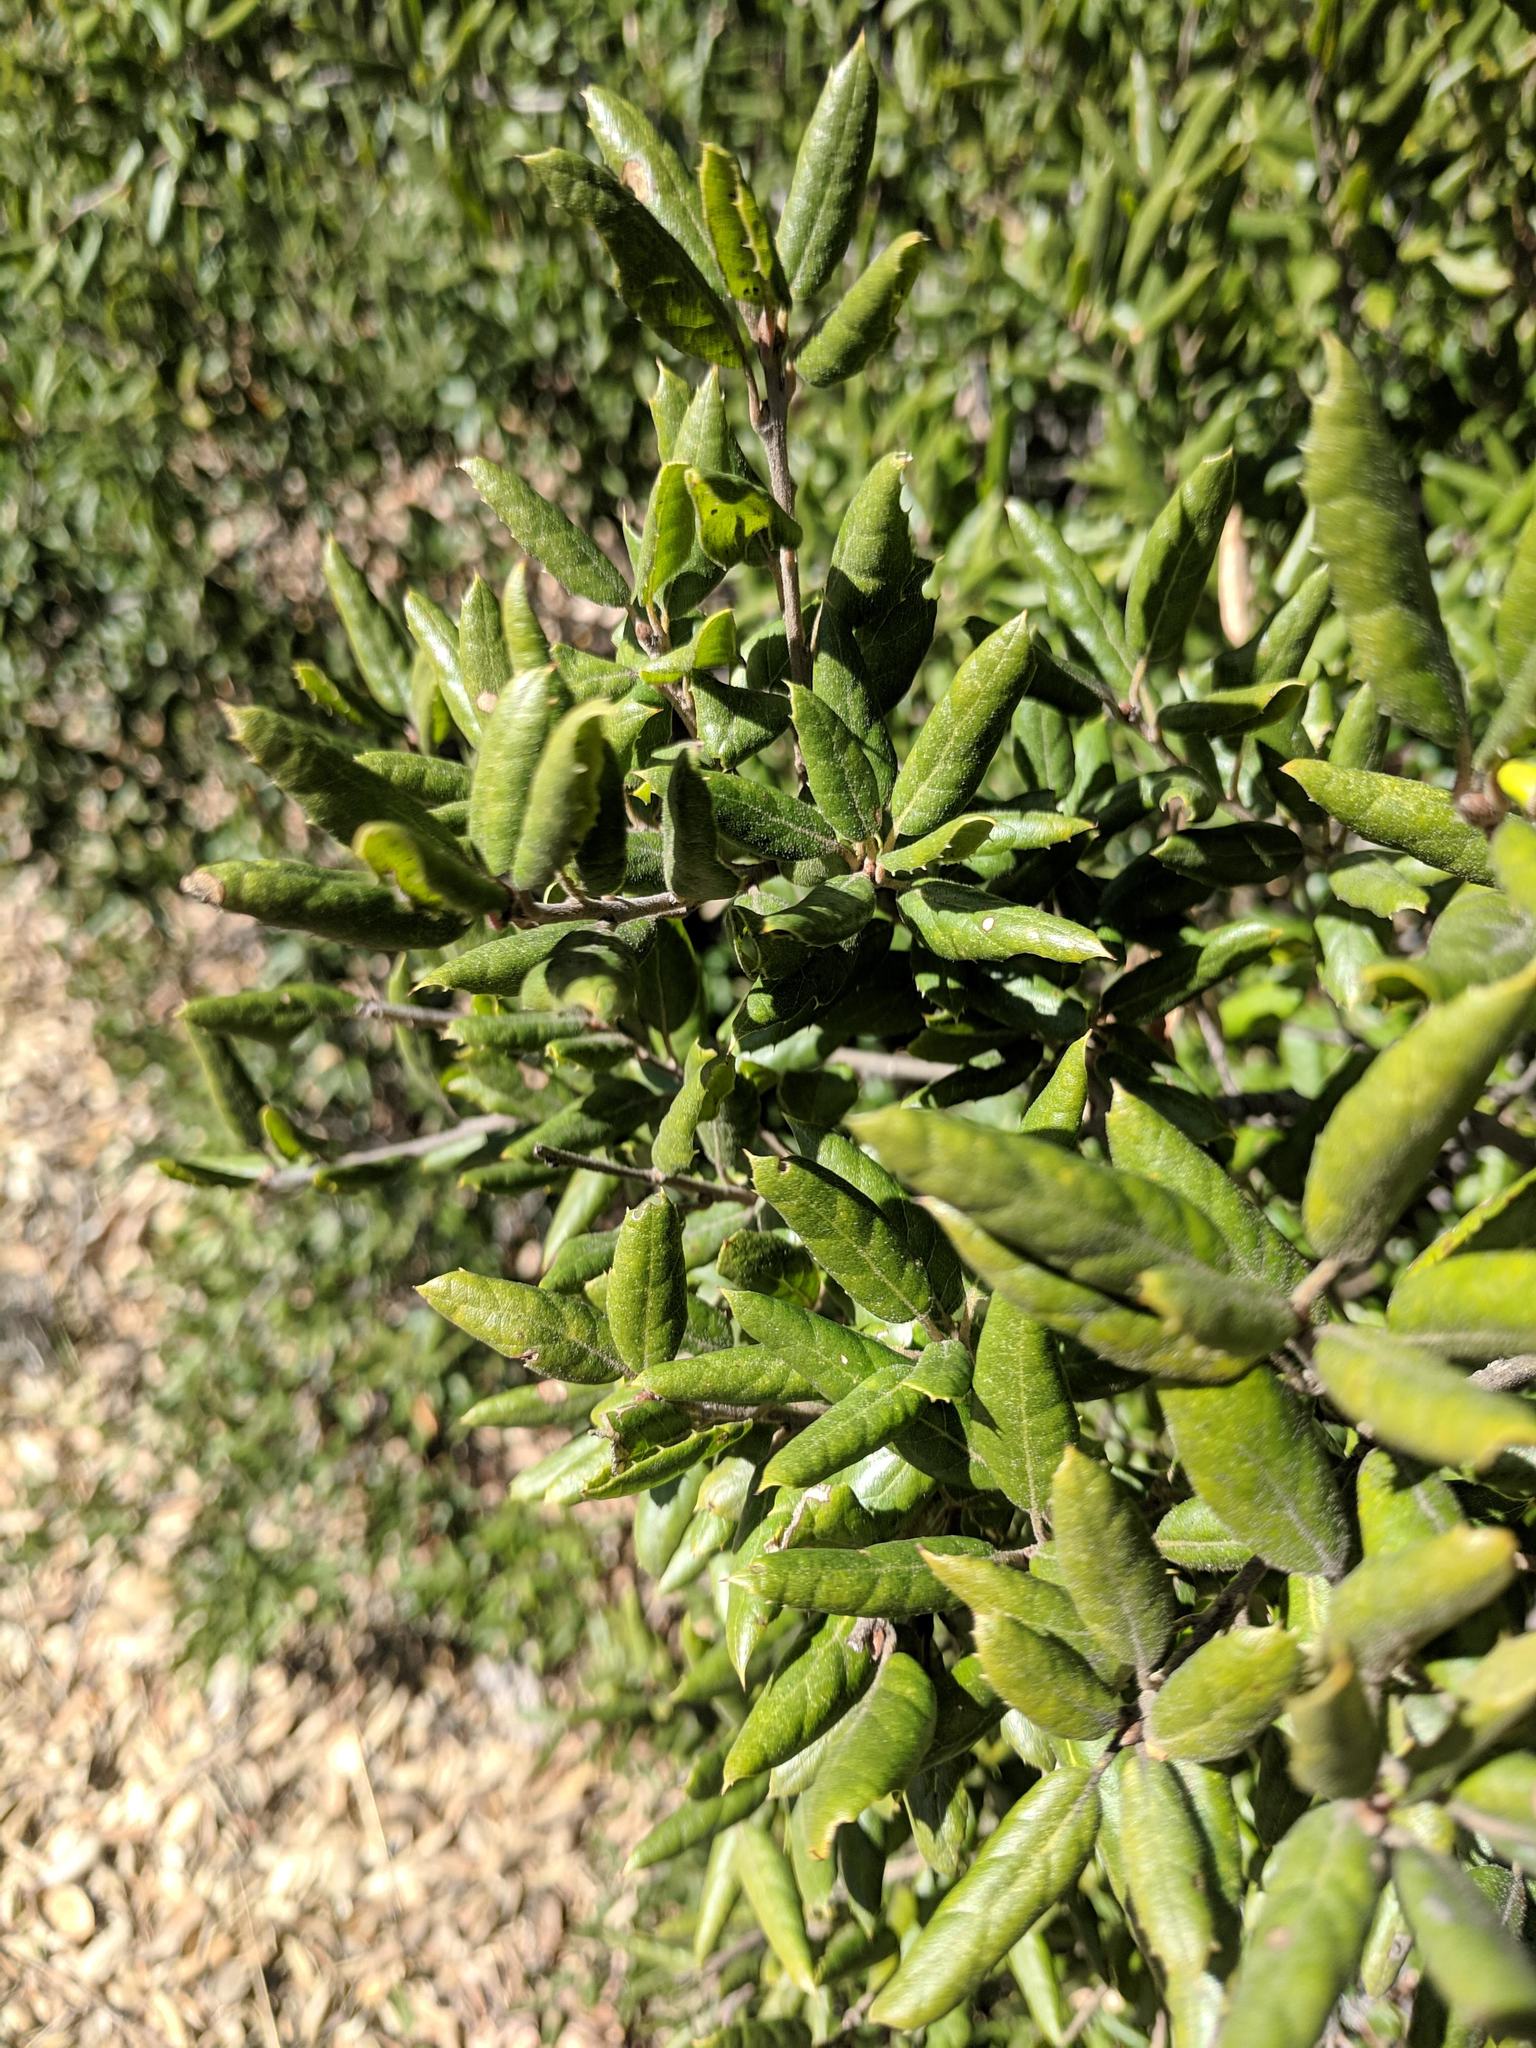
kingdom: Plantae
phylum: Tracheophyta
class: Magnoliopsida
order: Fagales
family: Fagaceae
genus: Quercus
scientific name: Quercus agrifolia
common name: California live oak
